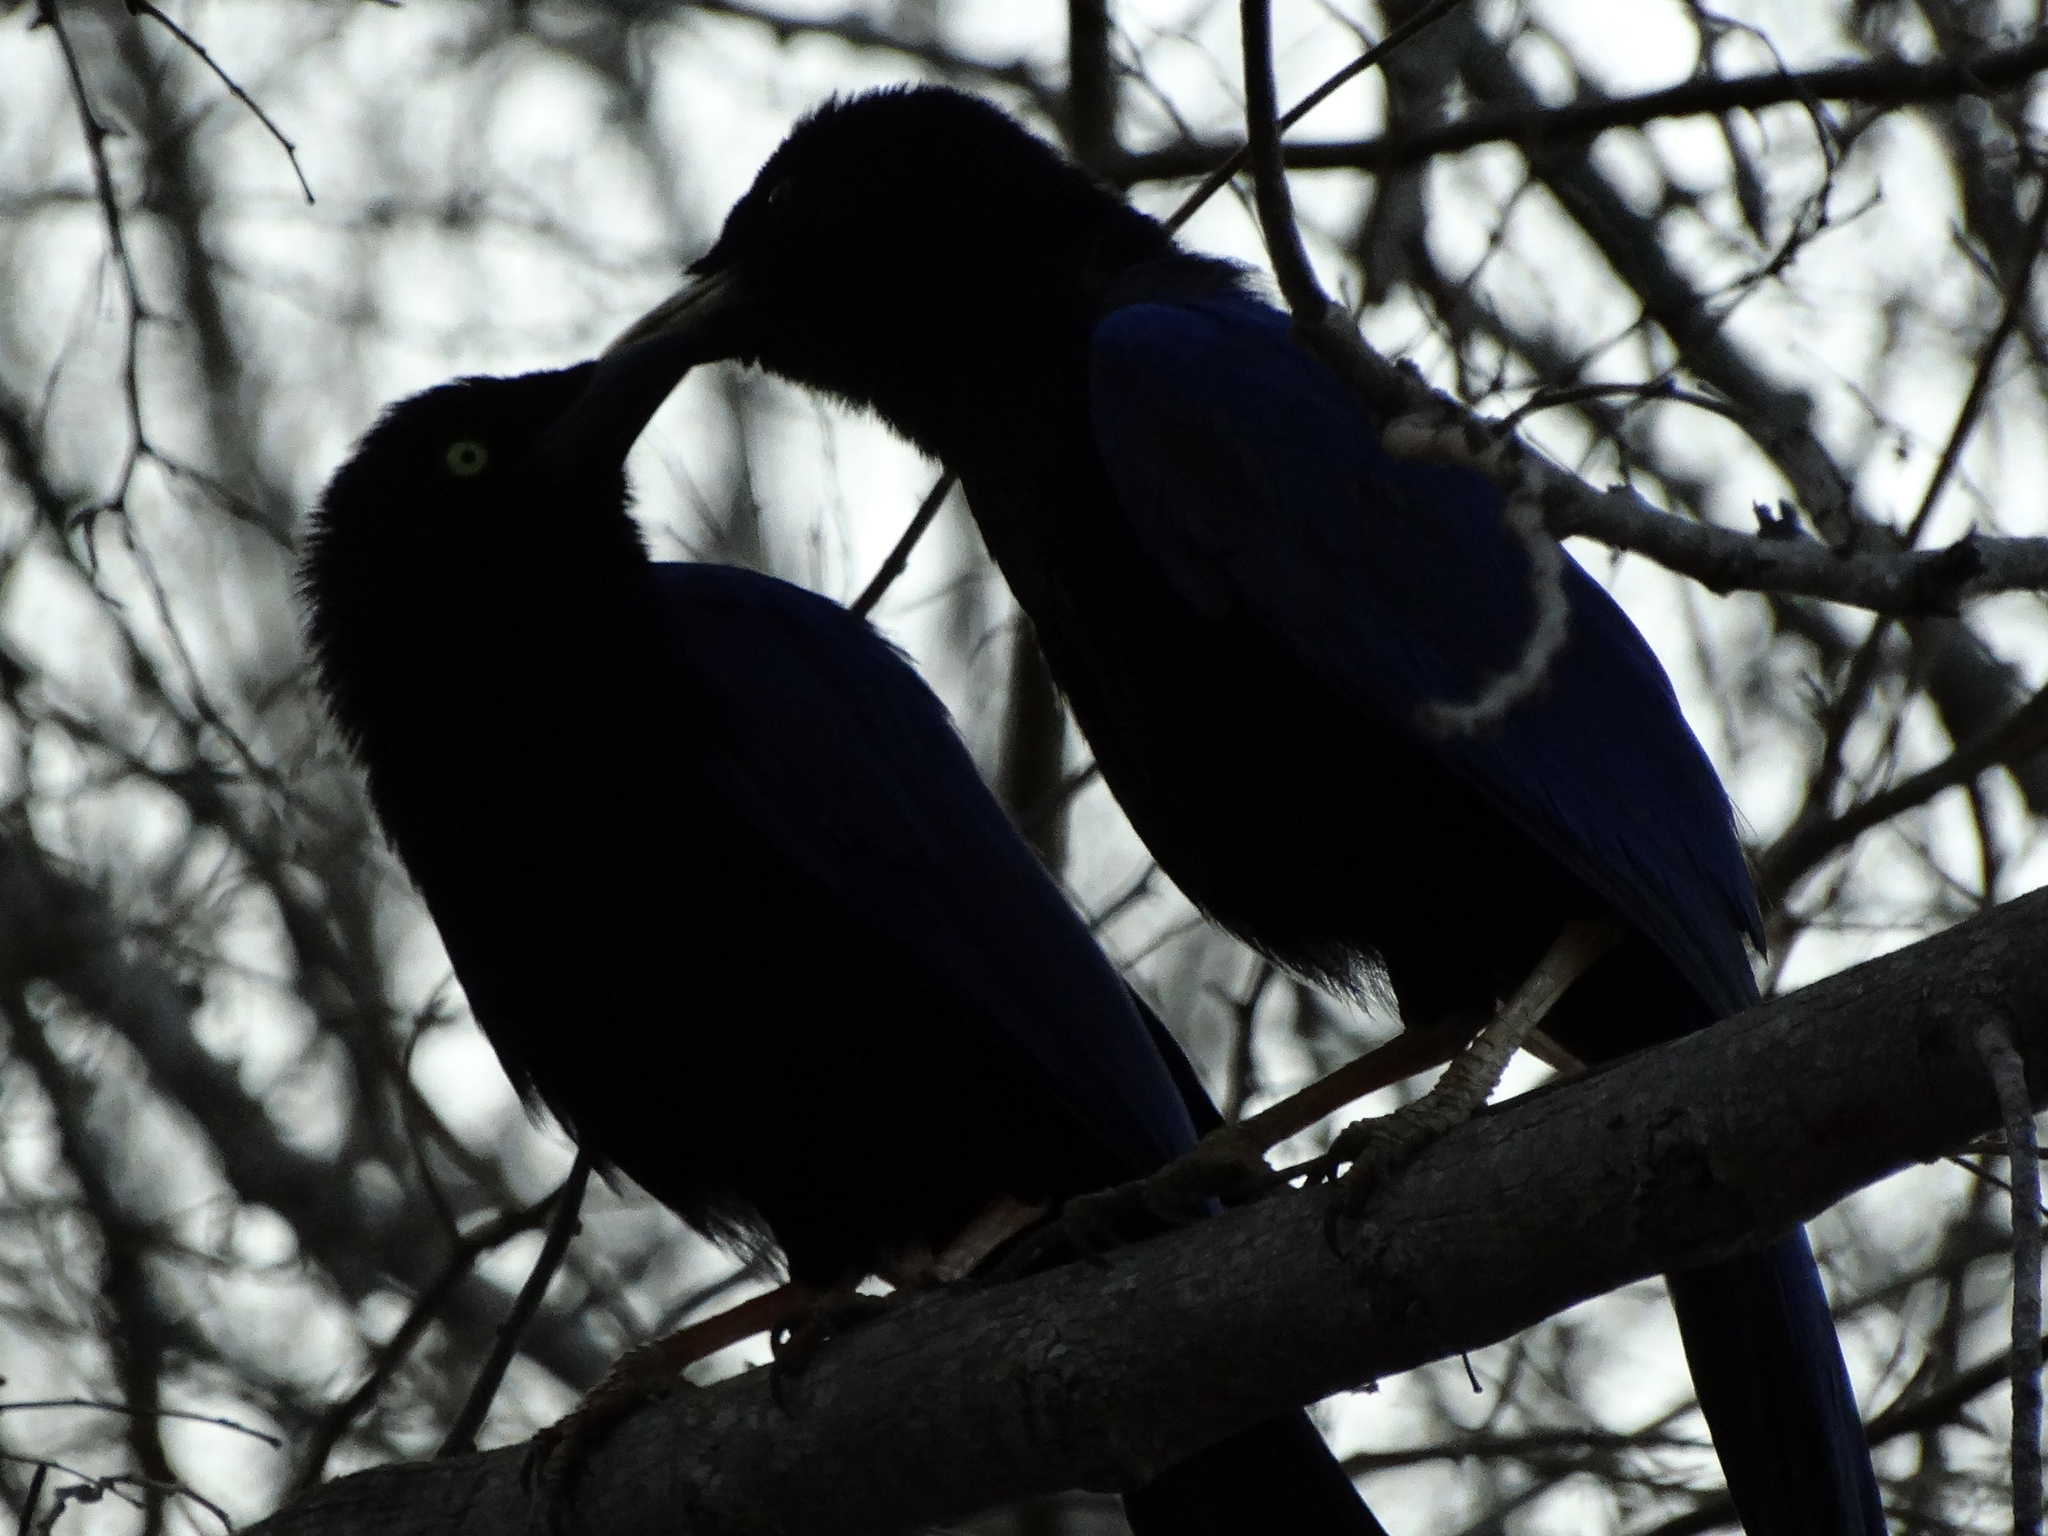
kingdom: Animalia
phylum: Chordata
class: Aves
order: Passeriformes
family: Corvidae
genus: Cyanocorax
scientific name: Cyanocorax beecheii
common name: Purplish-backed jay
